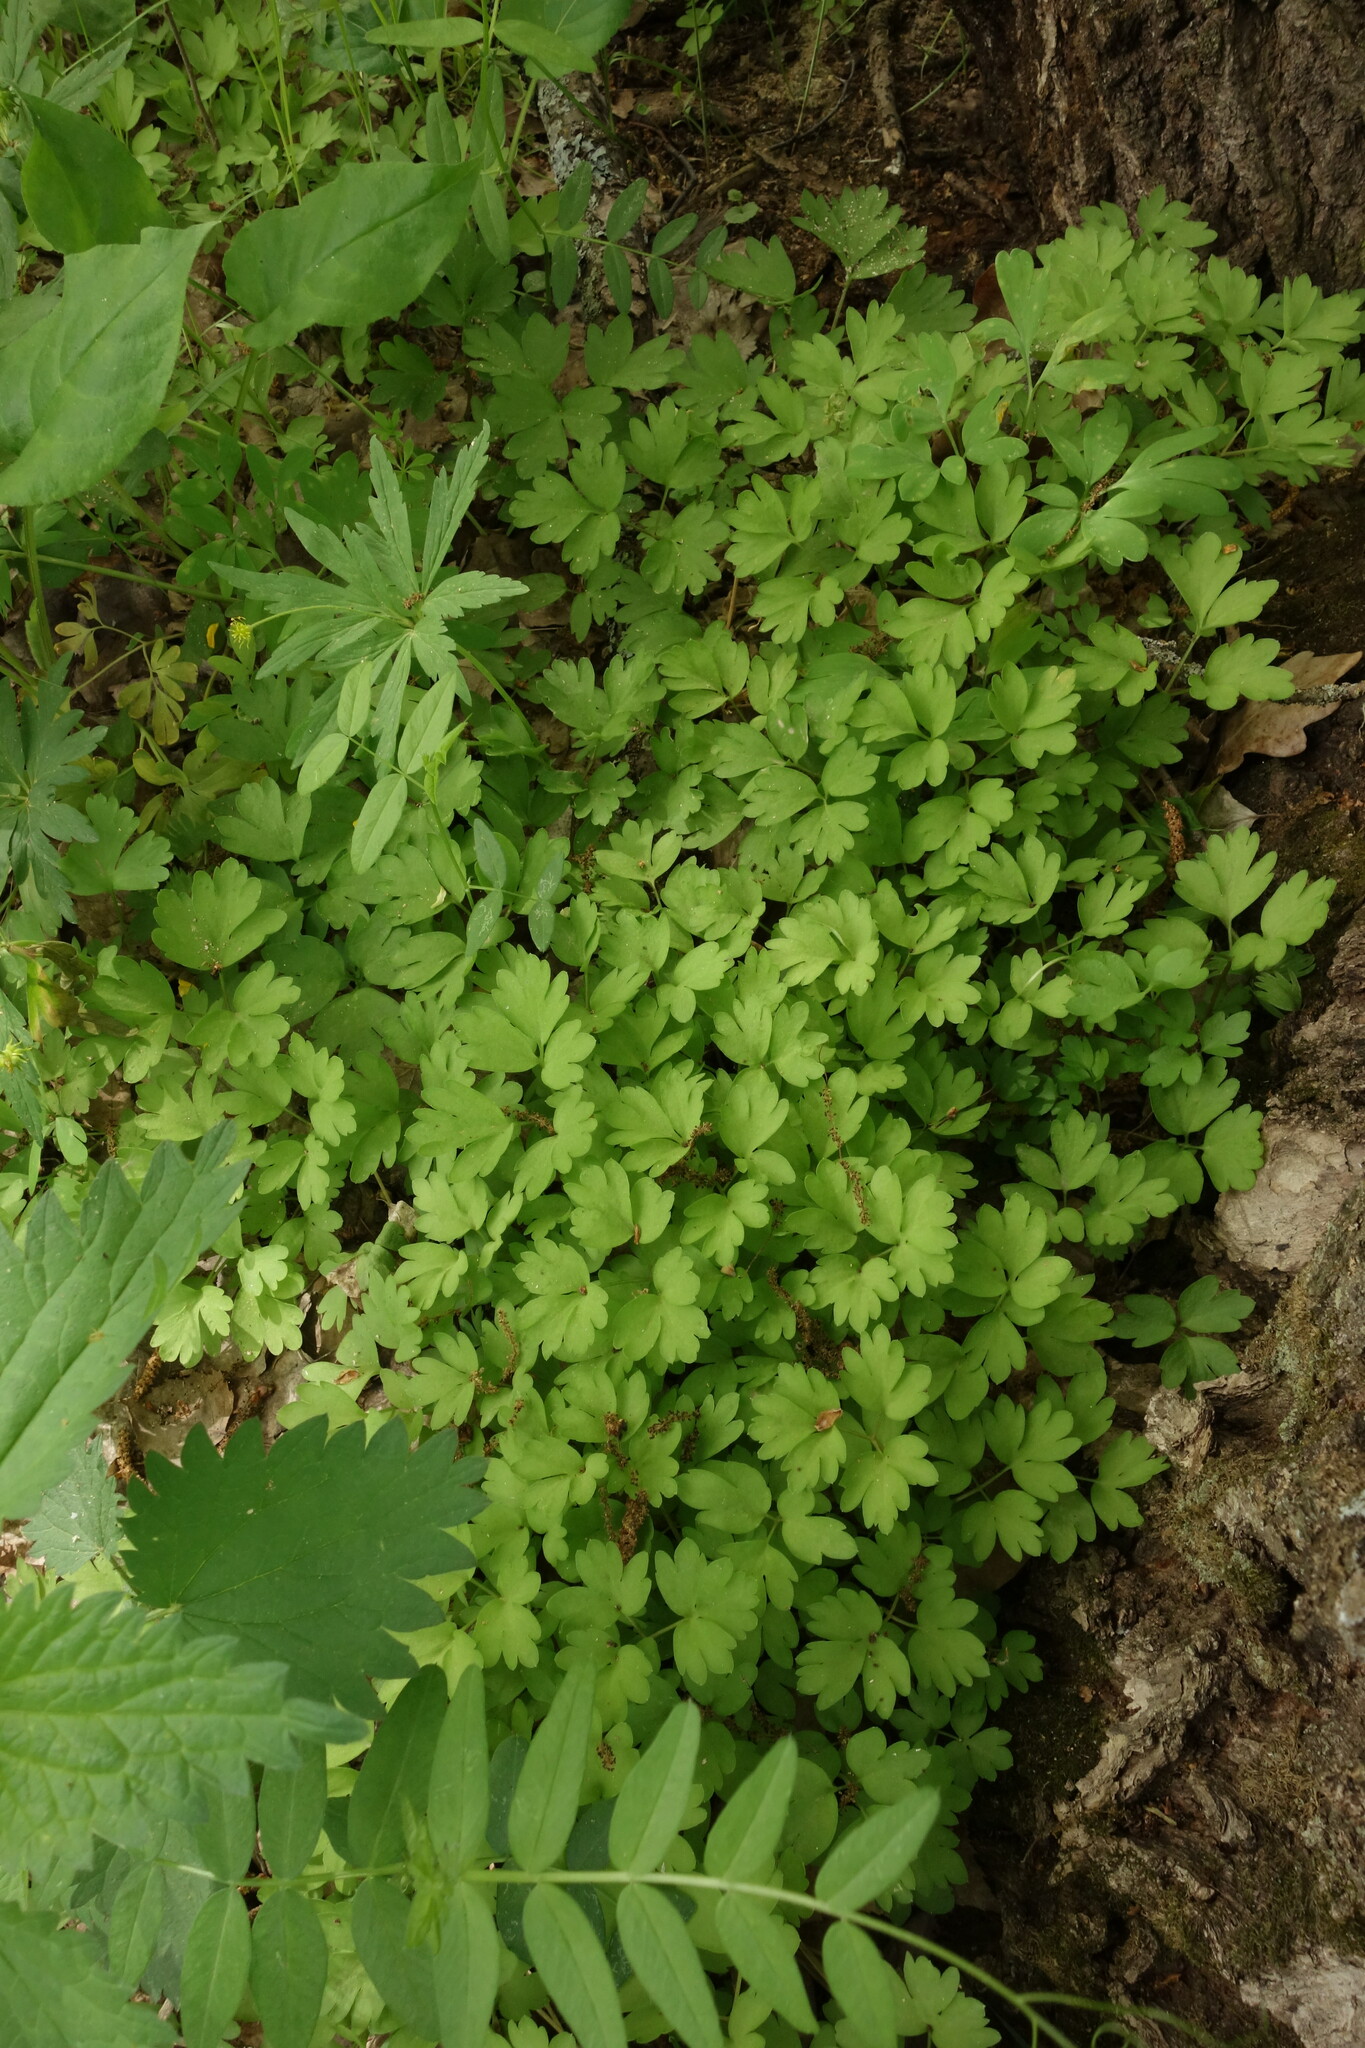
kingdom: Plantae
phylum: Tracheophyta
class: Magnoliopsida
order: Dipsacales
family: Viburnaceae
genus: Adoxa
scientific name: Adoxa moschatellina
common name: Moschatel
